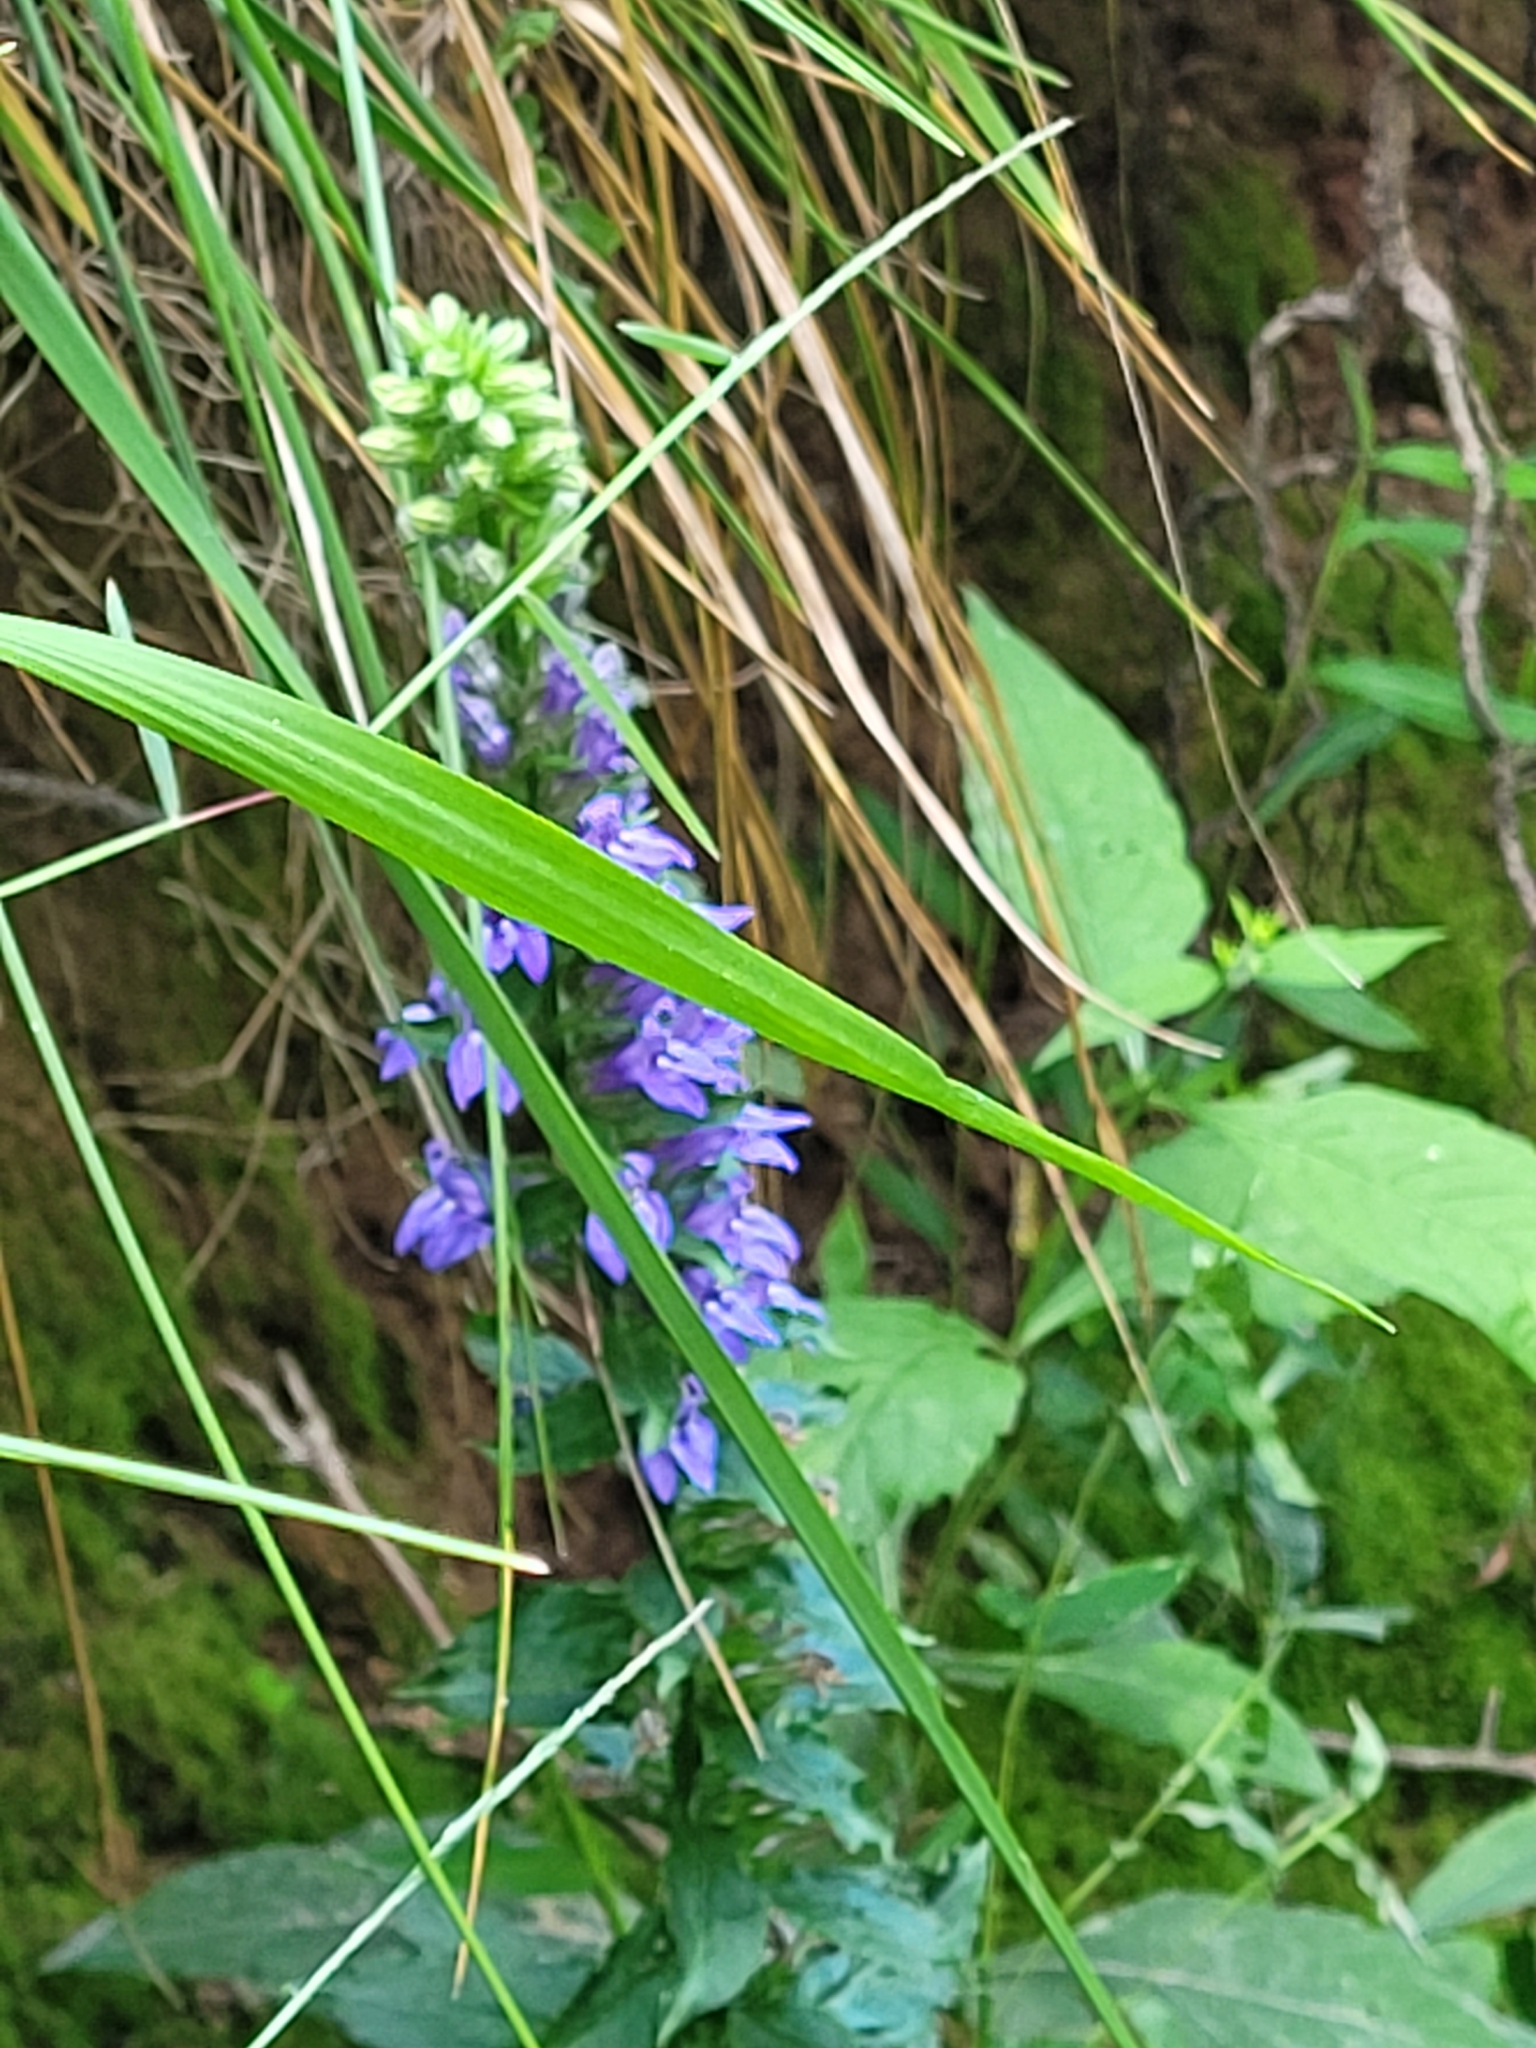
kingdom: Plantae
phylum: Tracheophyta
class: Magnoliopsida
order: Asterales
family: Campanulaceae
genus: Lobelia
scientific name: Lobelia siphilitica
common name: Great lobelia
